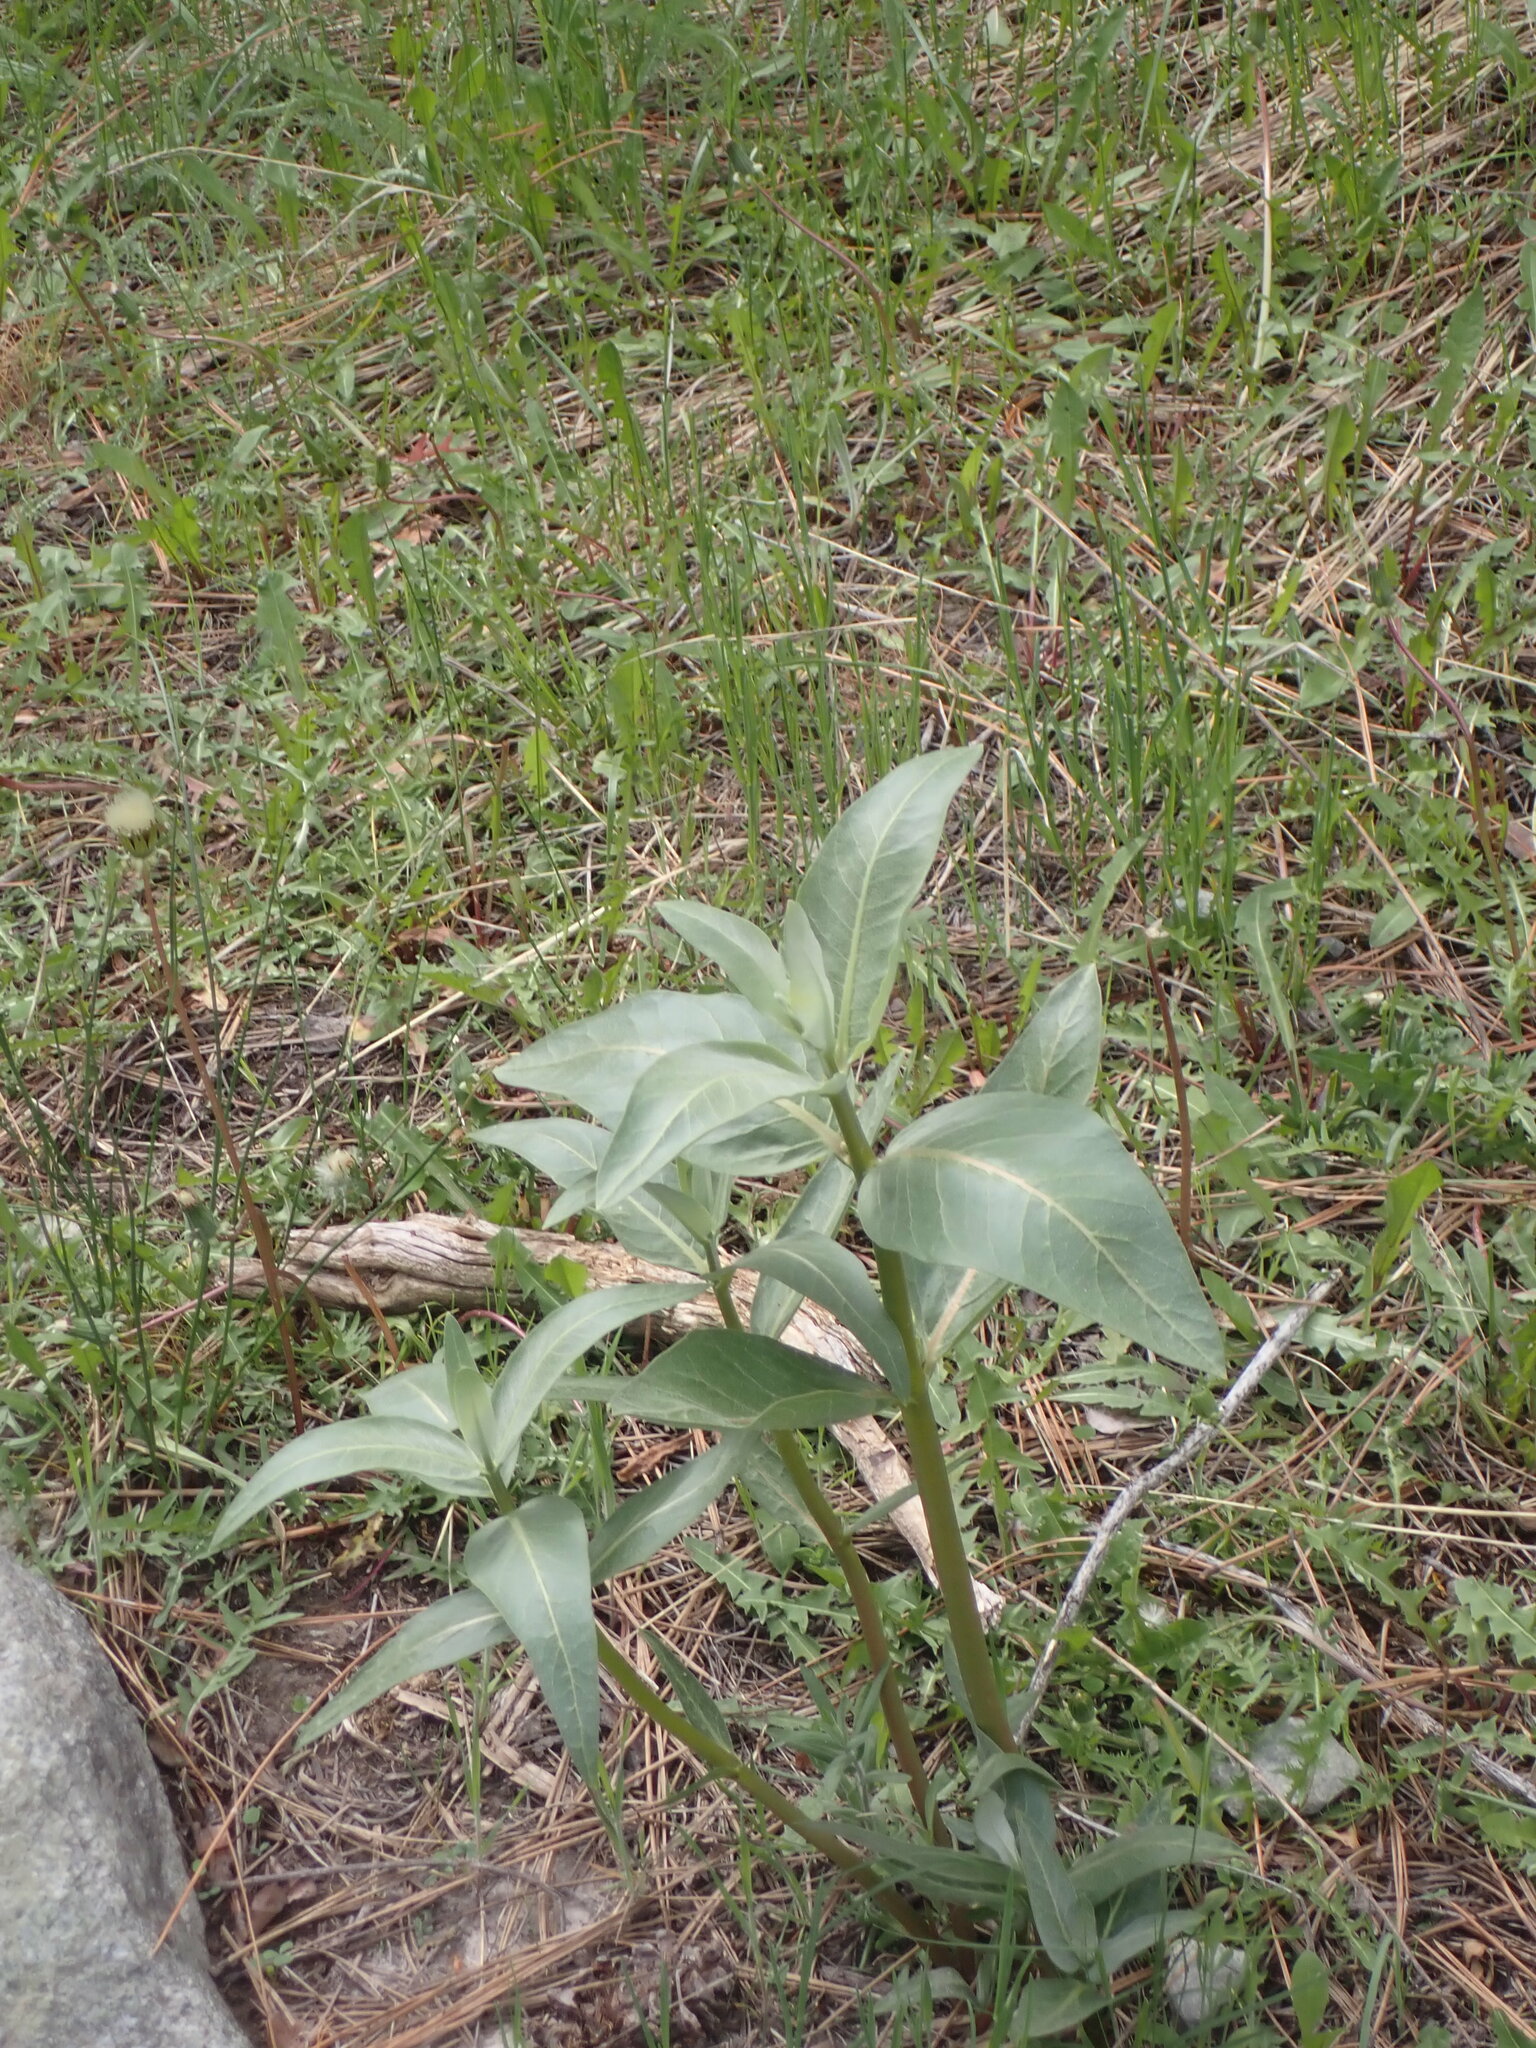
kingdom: Plantae
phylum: Tracheophyta
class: Magnoliopsida
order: Gentianales
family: Apocynaceae
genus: Asclepias
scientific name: Asclepias speciosa
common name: Showy milkweed
